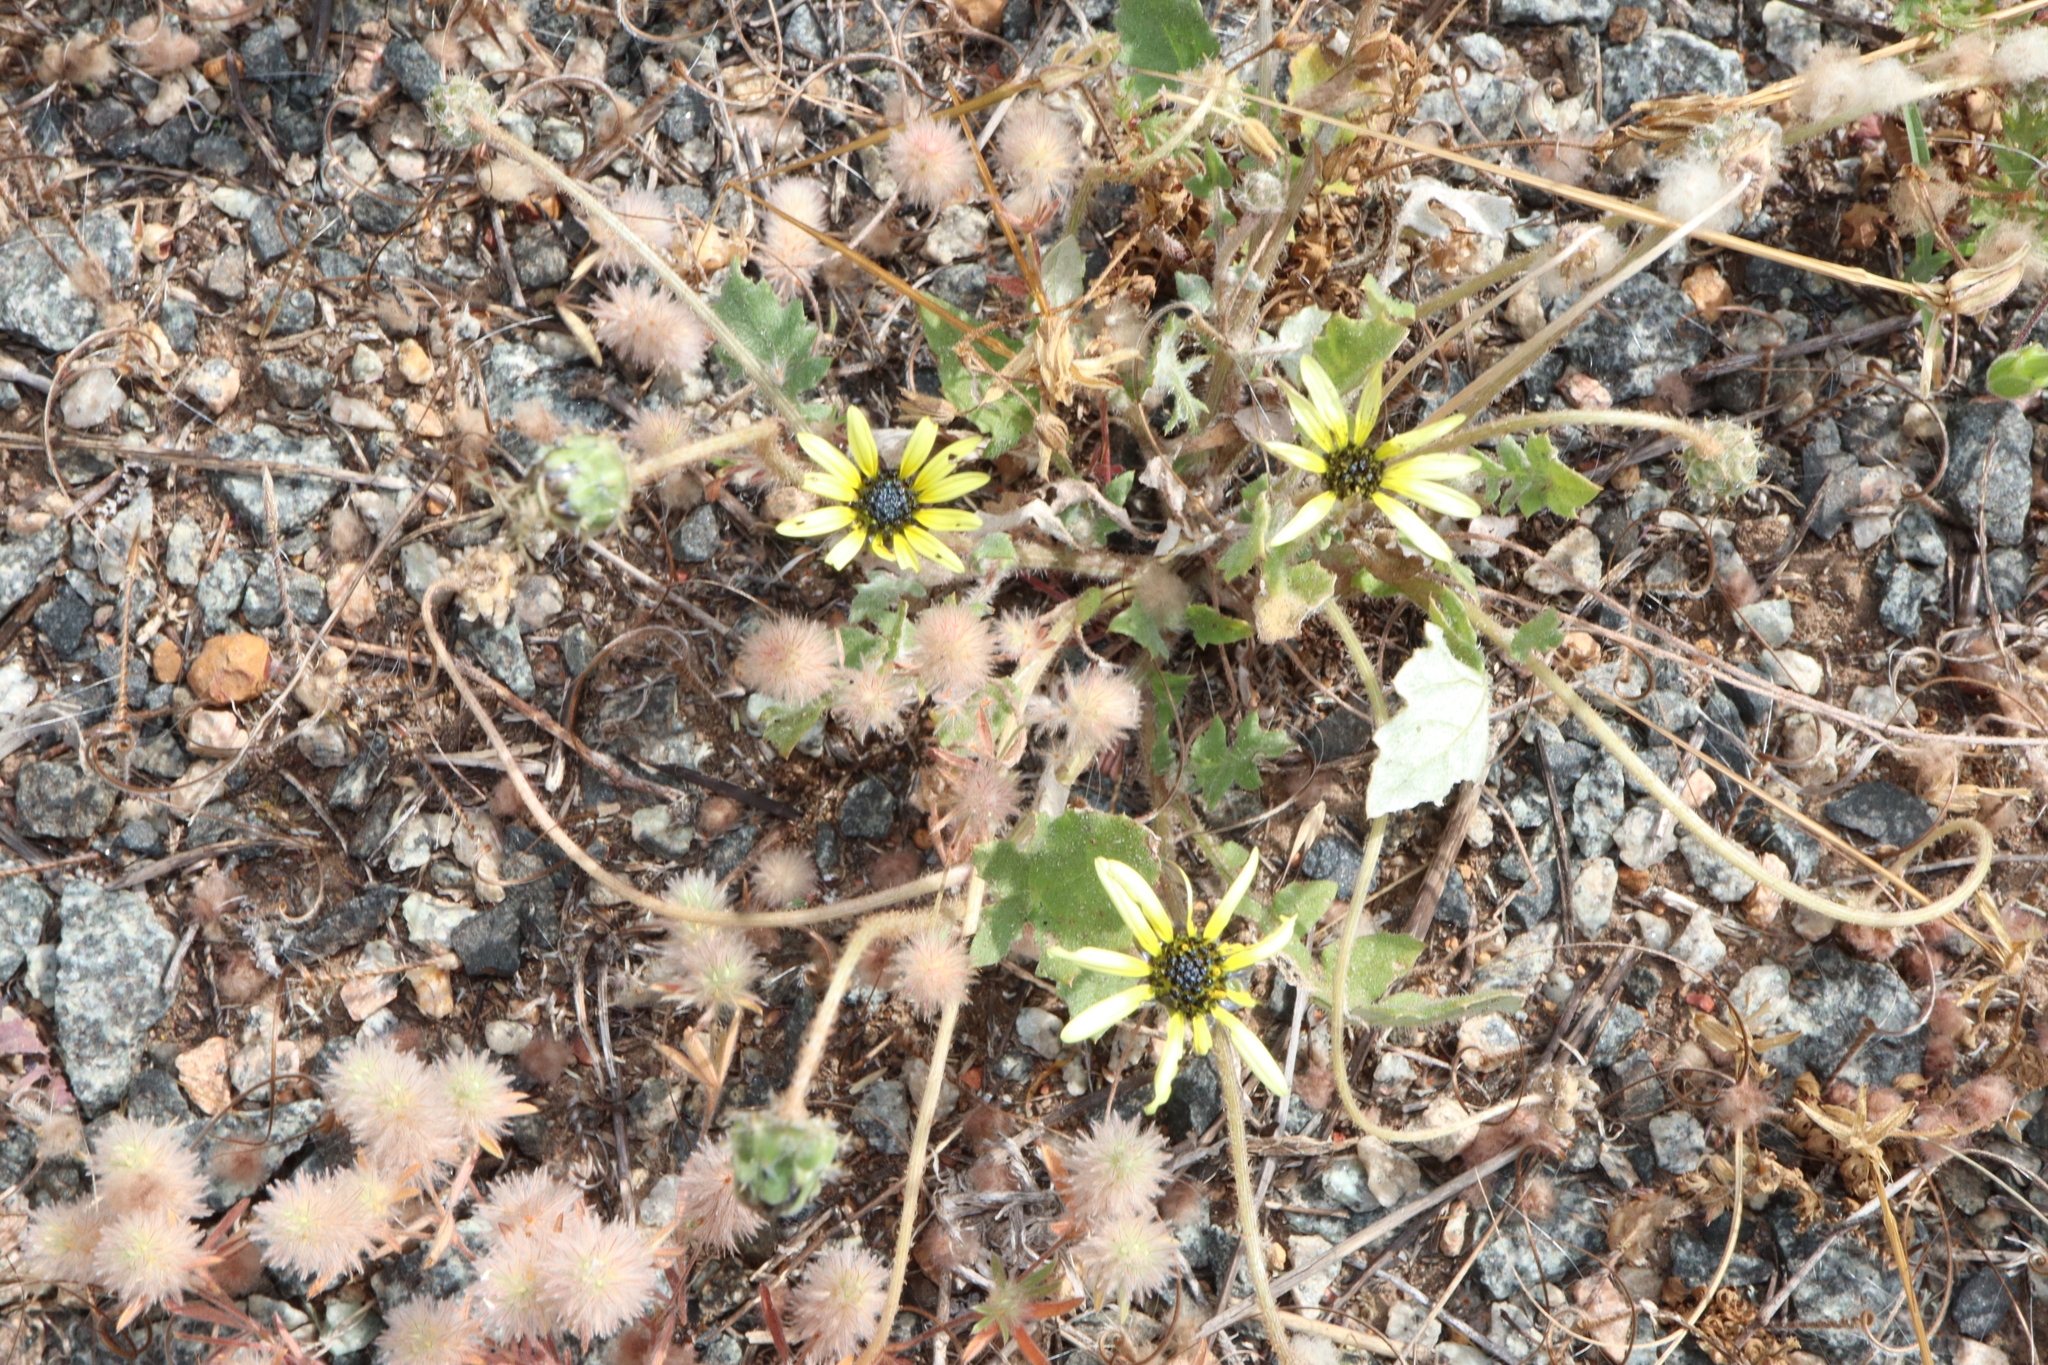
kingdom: Plantae
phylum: Tracheophyta
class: Magnoliopsida
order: Asterales
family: Asteraceae
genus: Arctotheca
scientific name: Arctotheca calendula
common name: Capeweed
